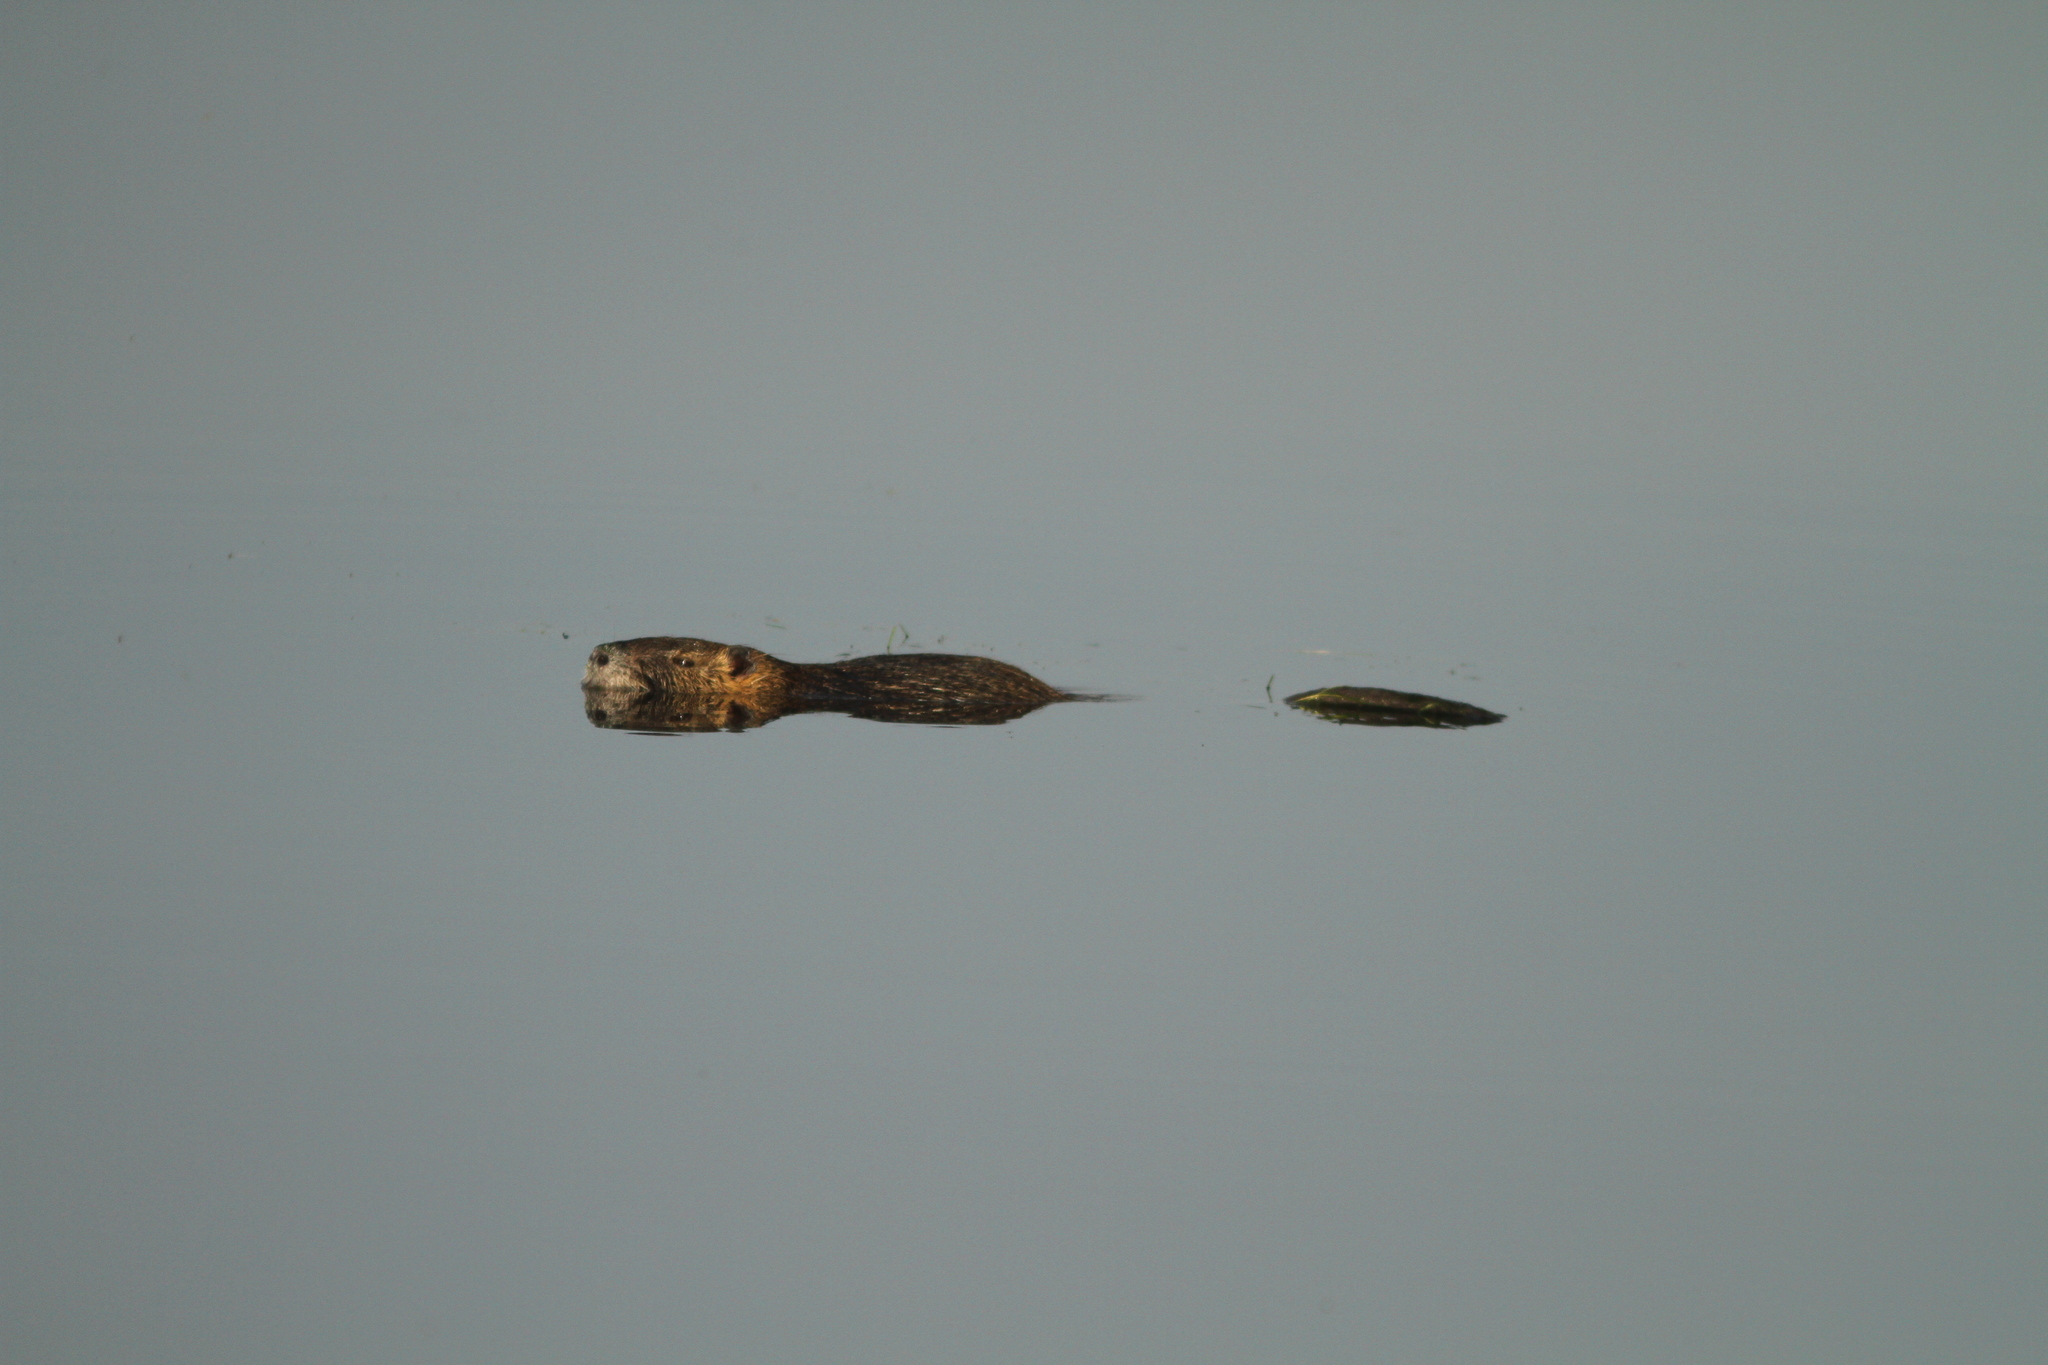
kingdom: Animalia
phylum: Chordata
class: Mammalia
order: Rodentia
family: Myocastoridae
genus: Myocastor
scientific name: Myocastor coypus
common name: Coypu
